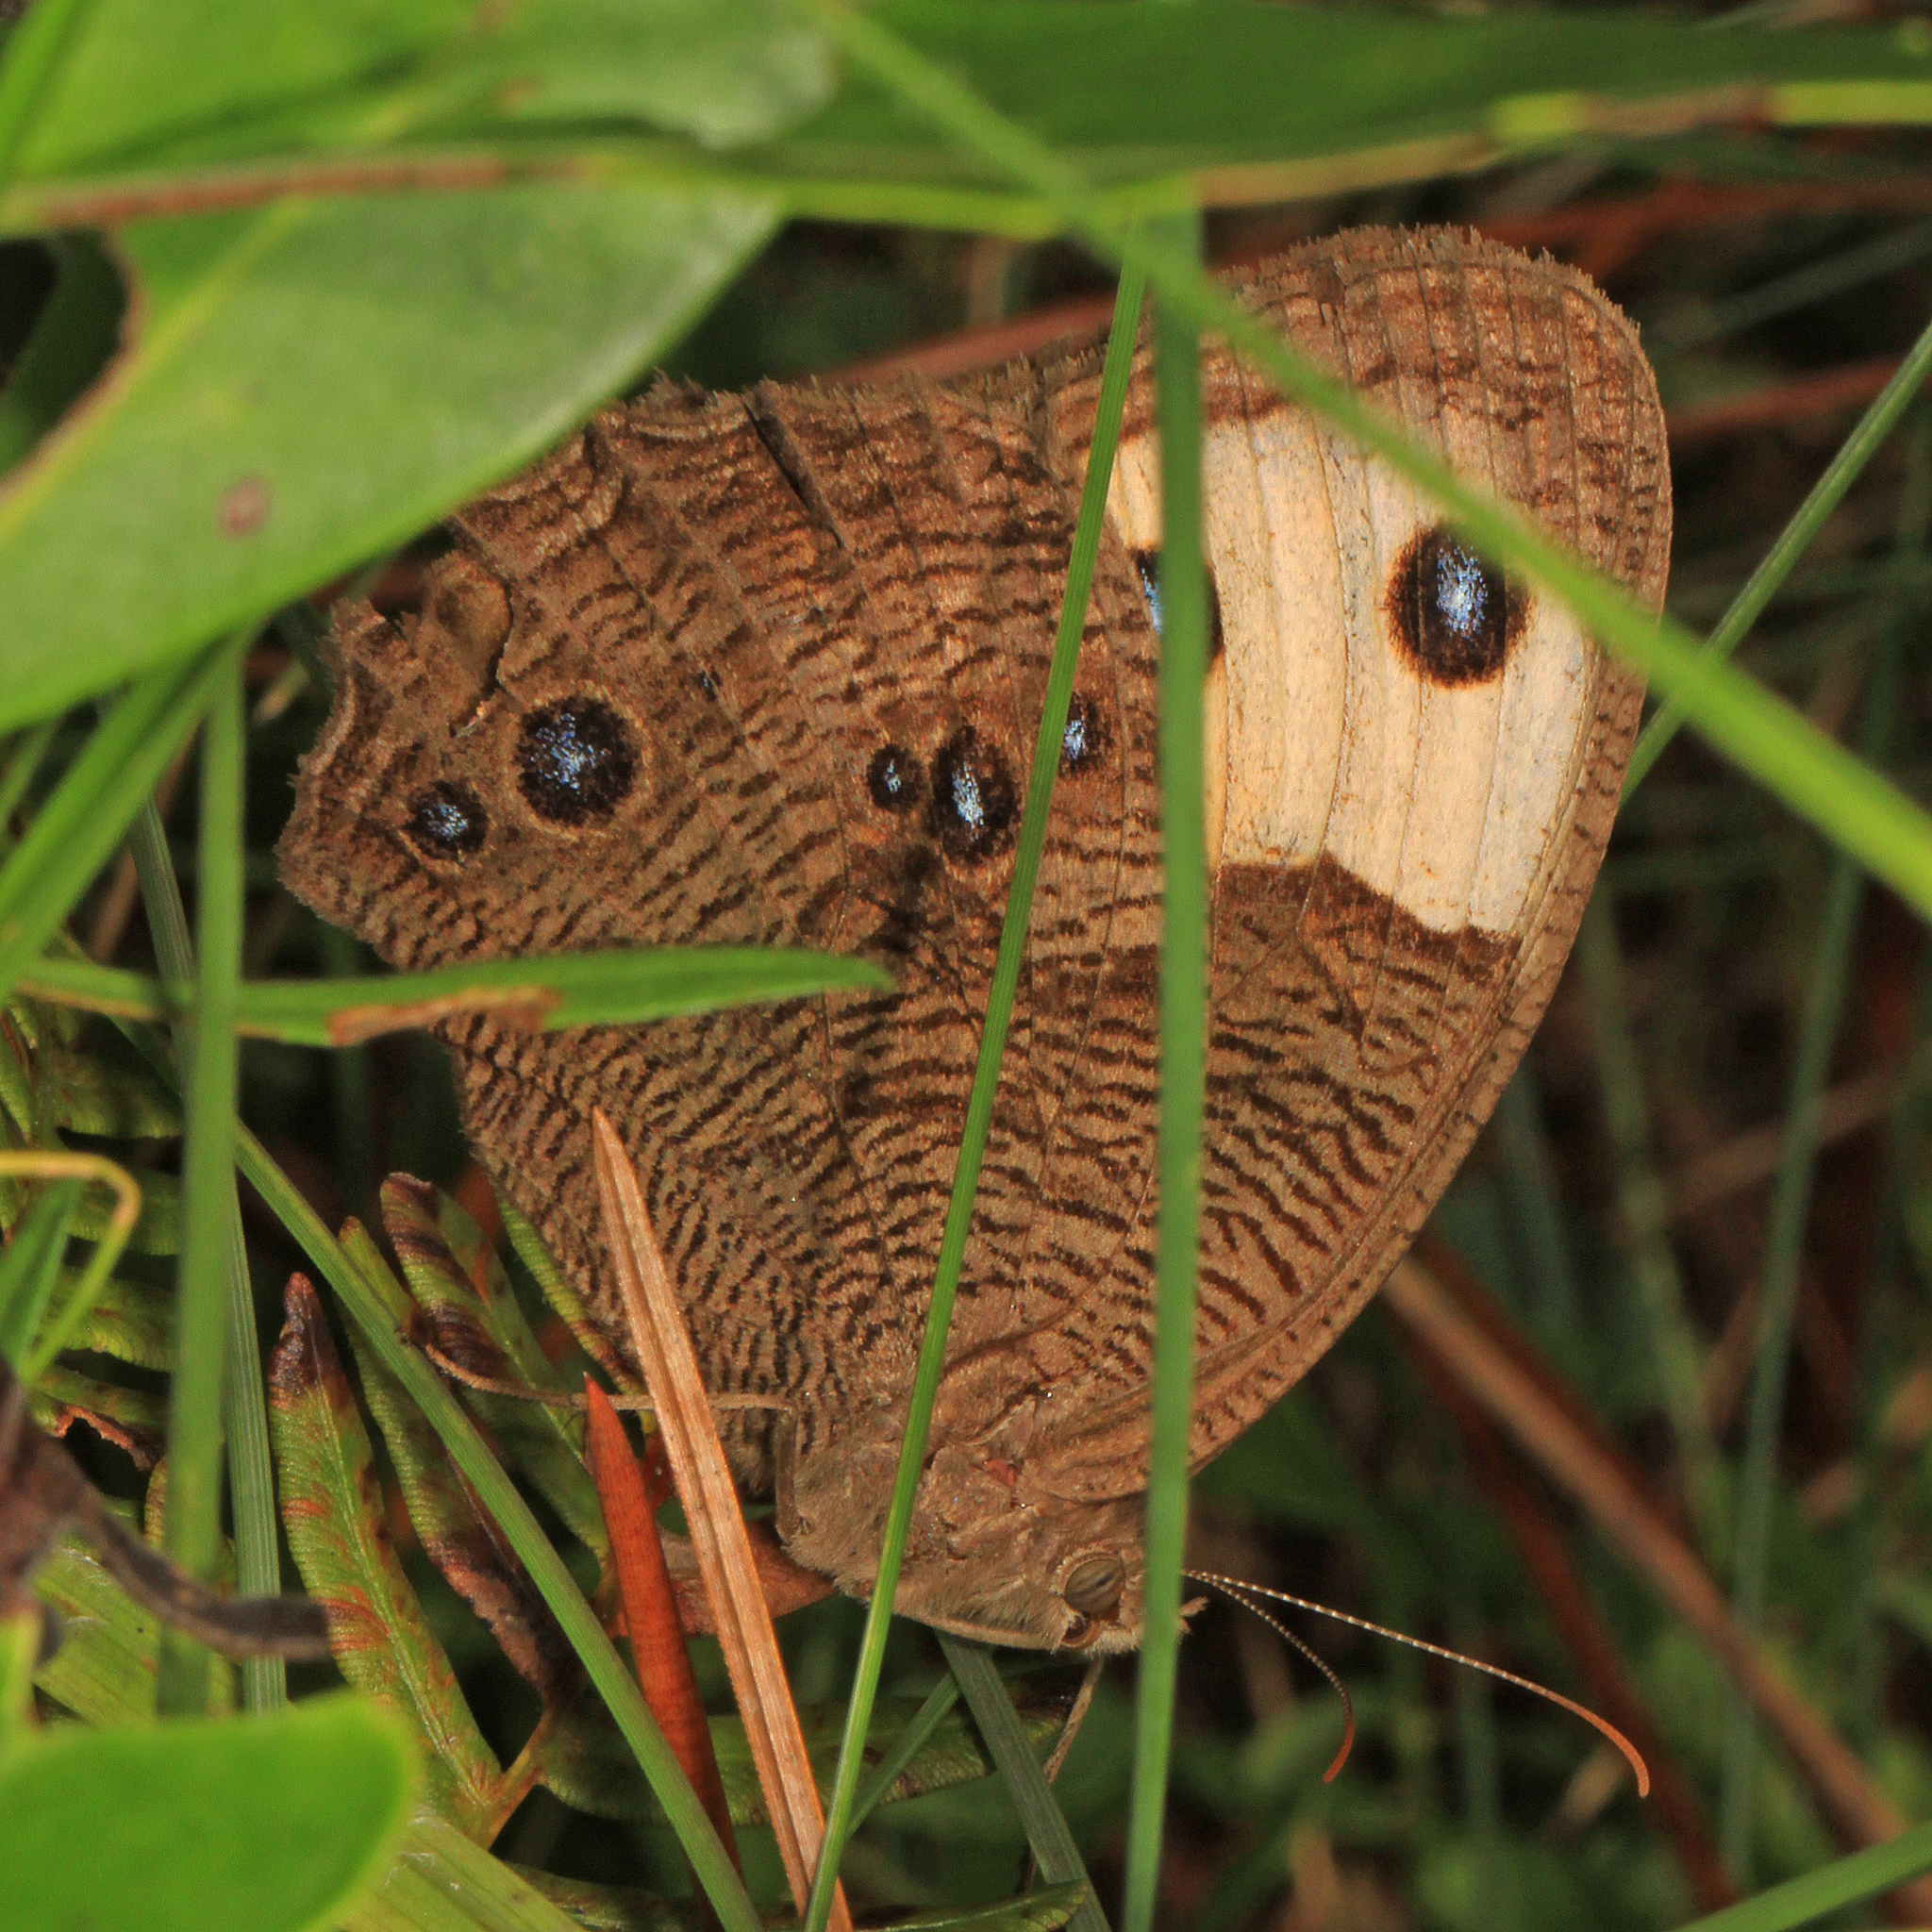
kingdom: Animalia
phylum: Arthropoda
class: Insecta
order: Lepidoptera
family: Nymphalidae
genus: Cercyonis
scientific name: Cercyonis pegala
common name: Common wood-nymph
